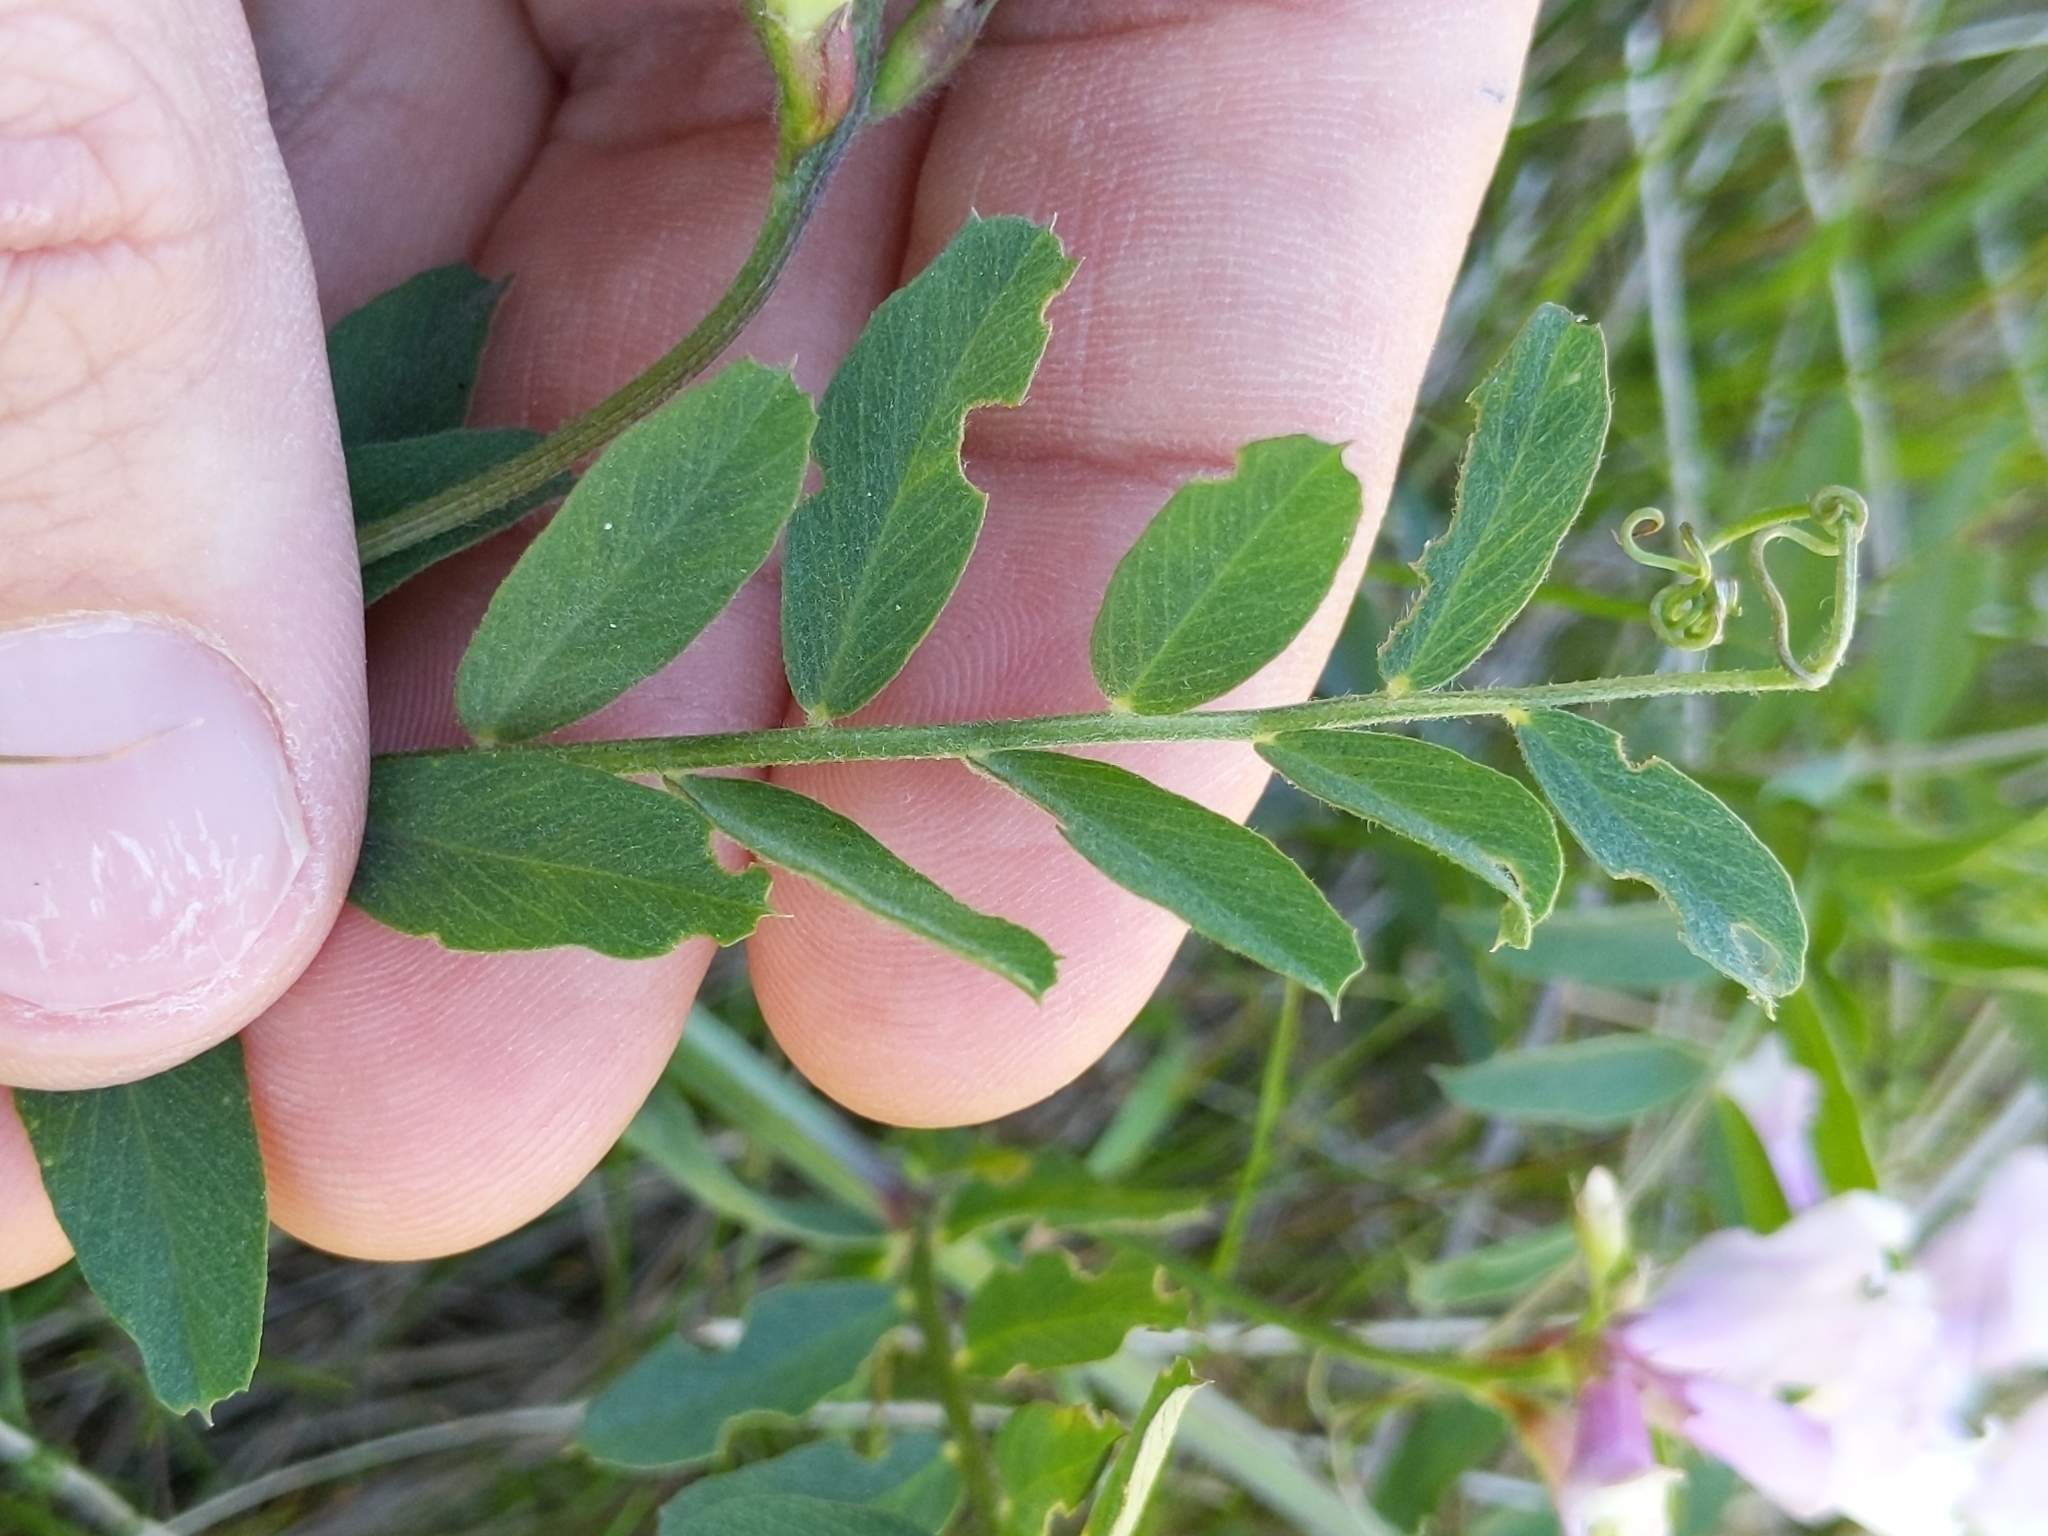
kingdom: Plantae
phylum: Tracheophyta
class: Magnoliopsida
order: Fabales
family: Fabaceae
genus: Lathyrus
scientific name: Lathyrus vestitus
